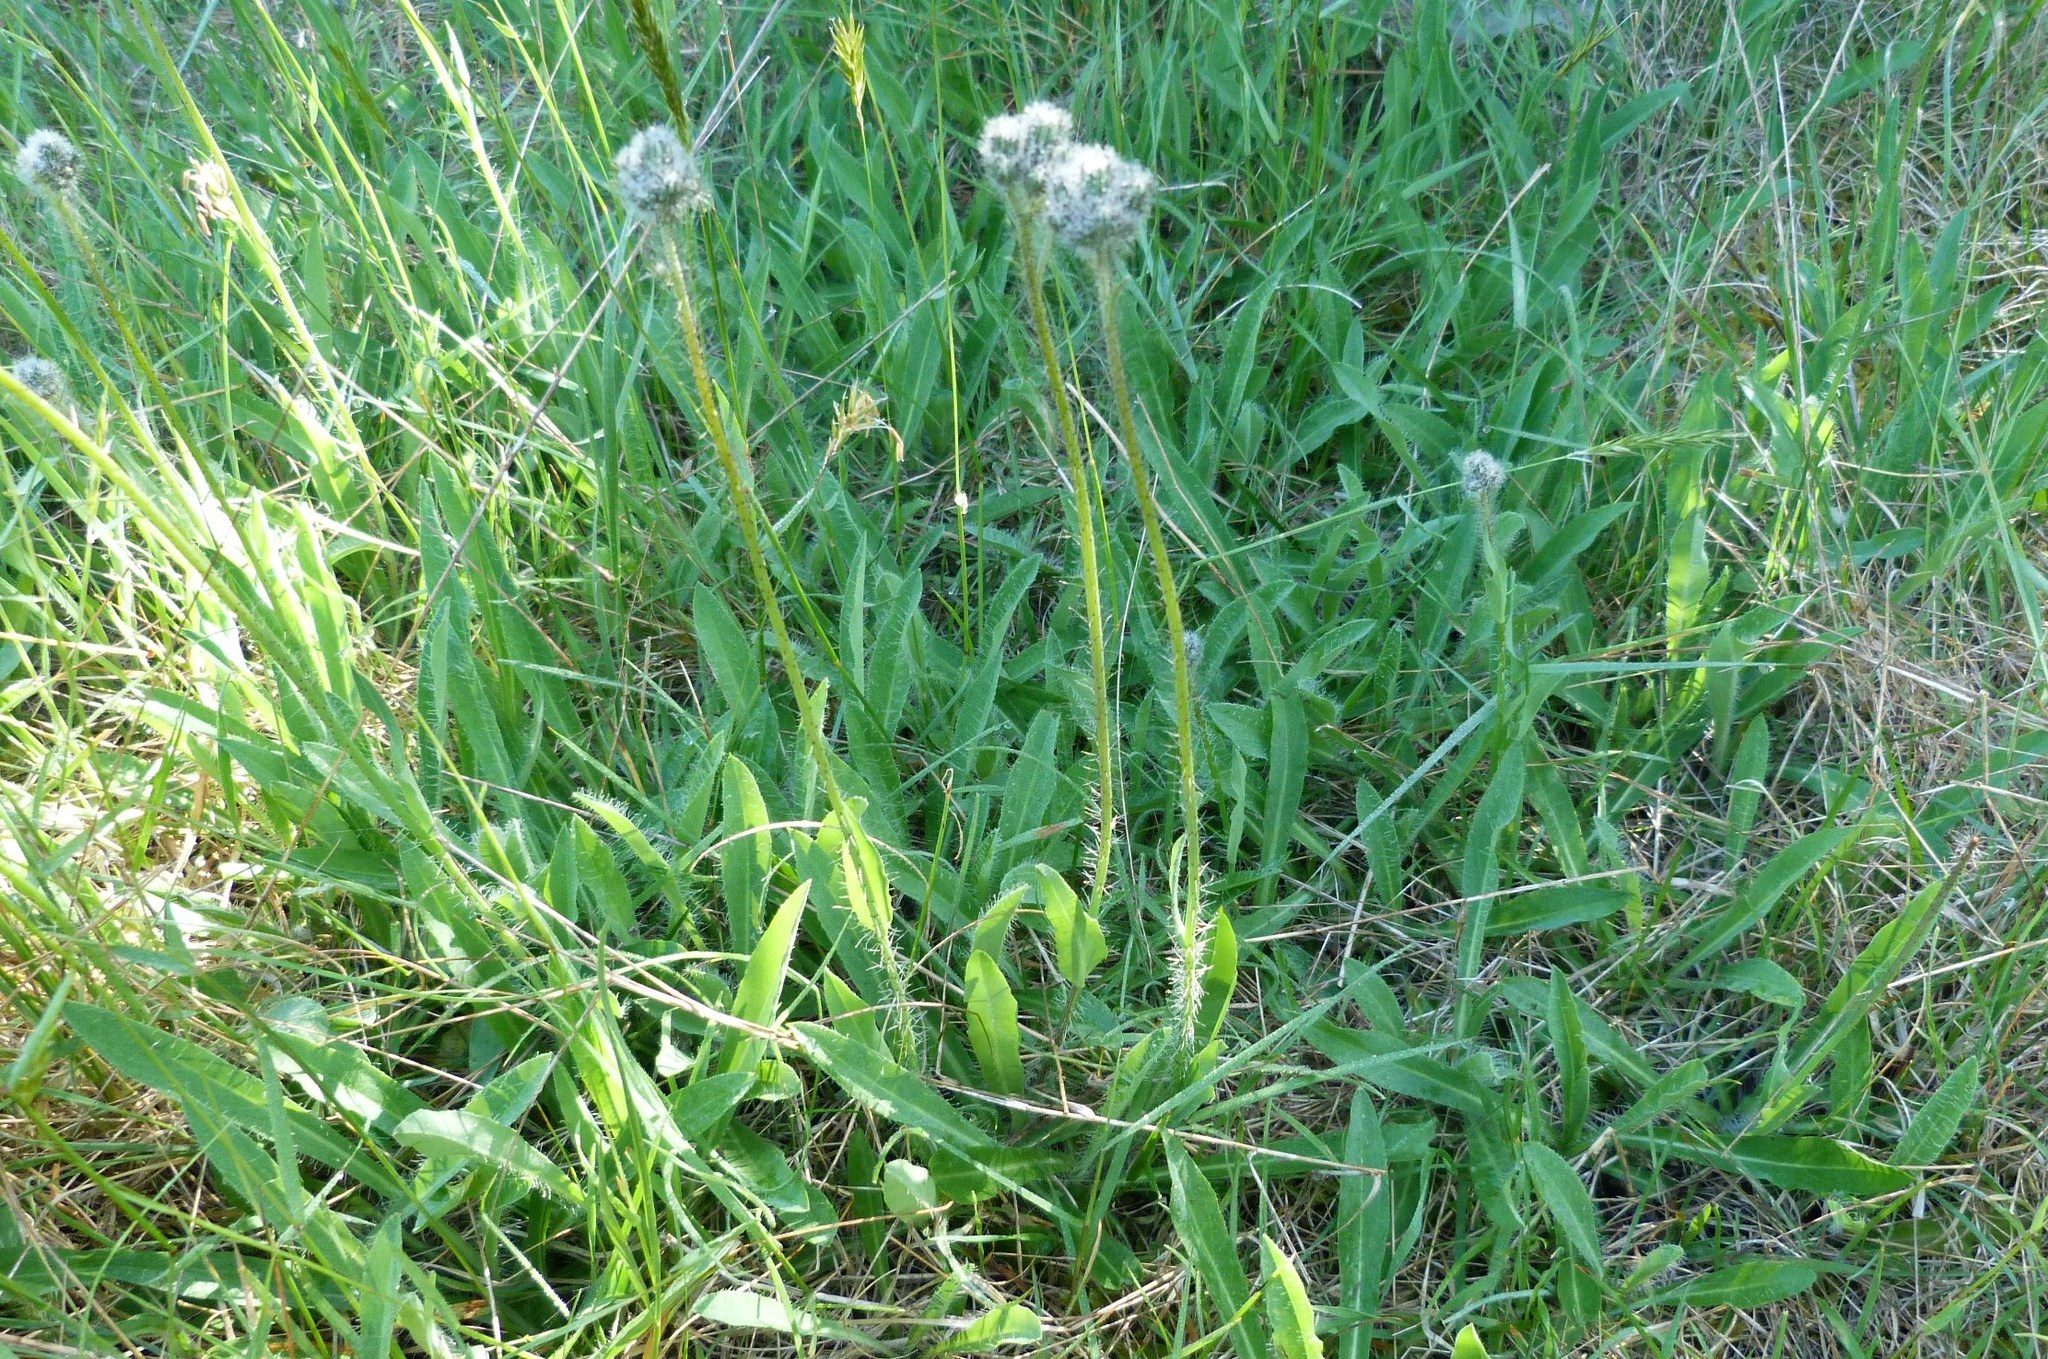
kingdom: Plantae
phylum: Tracheophyta
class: Magnoliopsida
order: Asterales
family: Asteraceae
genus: Pilosella
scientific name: Pilosella piloselloides
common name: Glaucous king-devil
